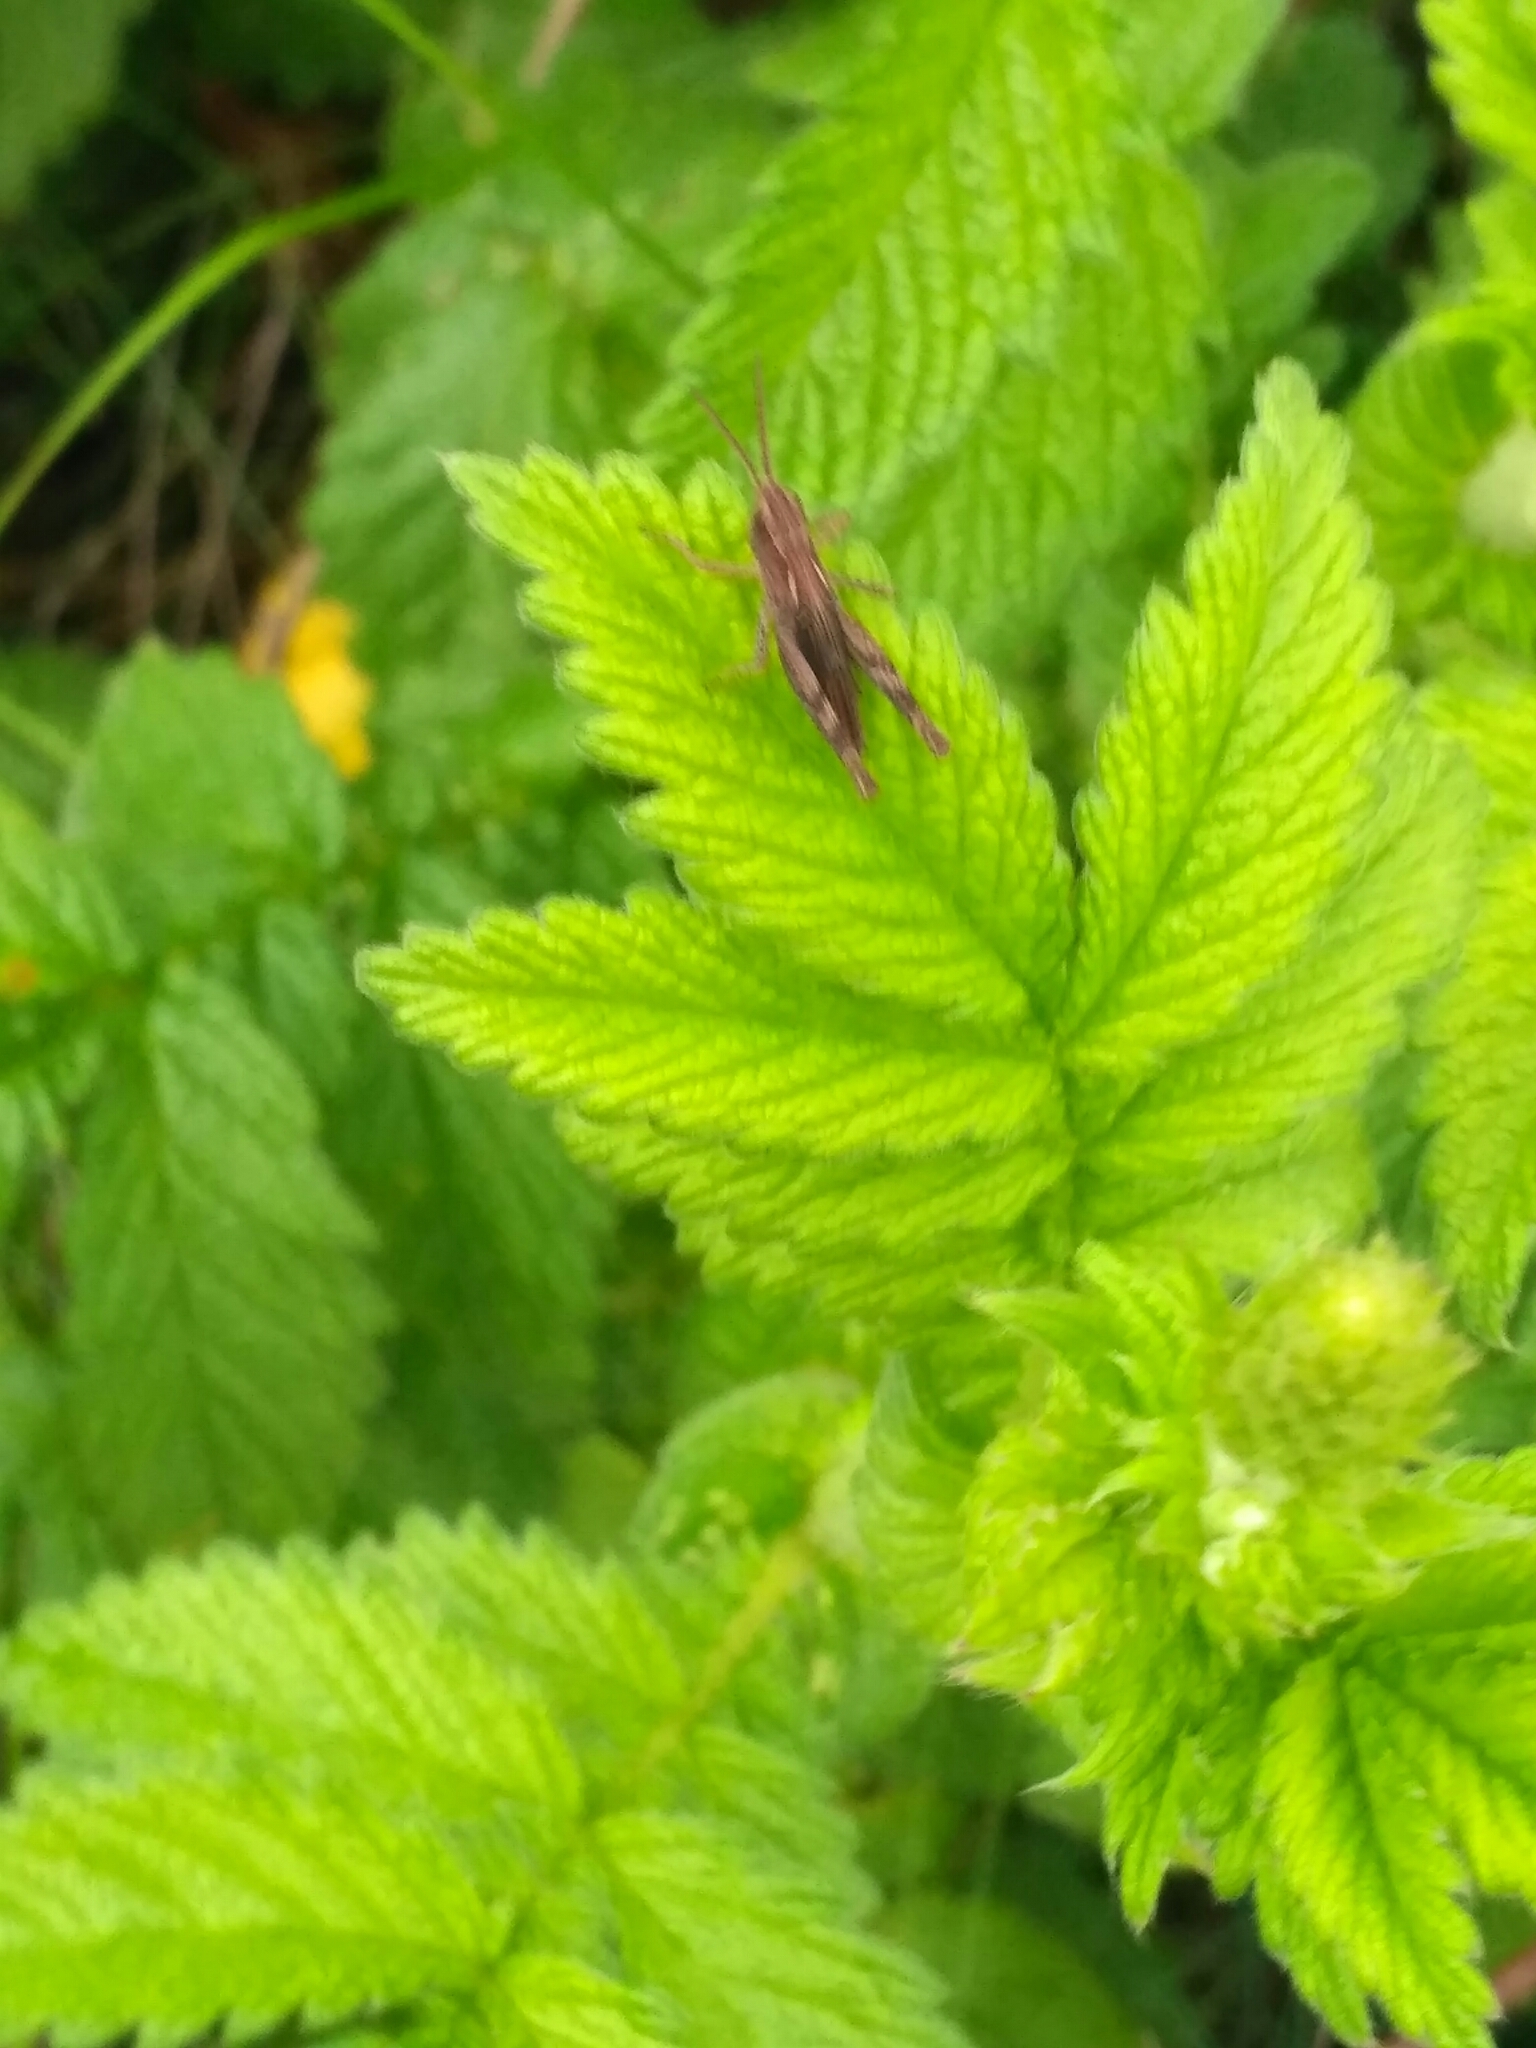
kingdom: Animalia
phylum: Arthropoda
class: Insecta
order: Orthoptera
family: Acrididae
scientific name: Acrididae
